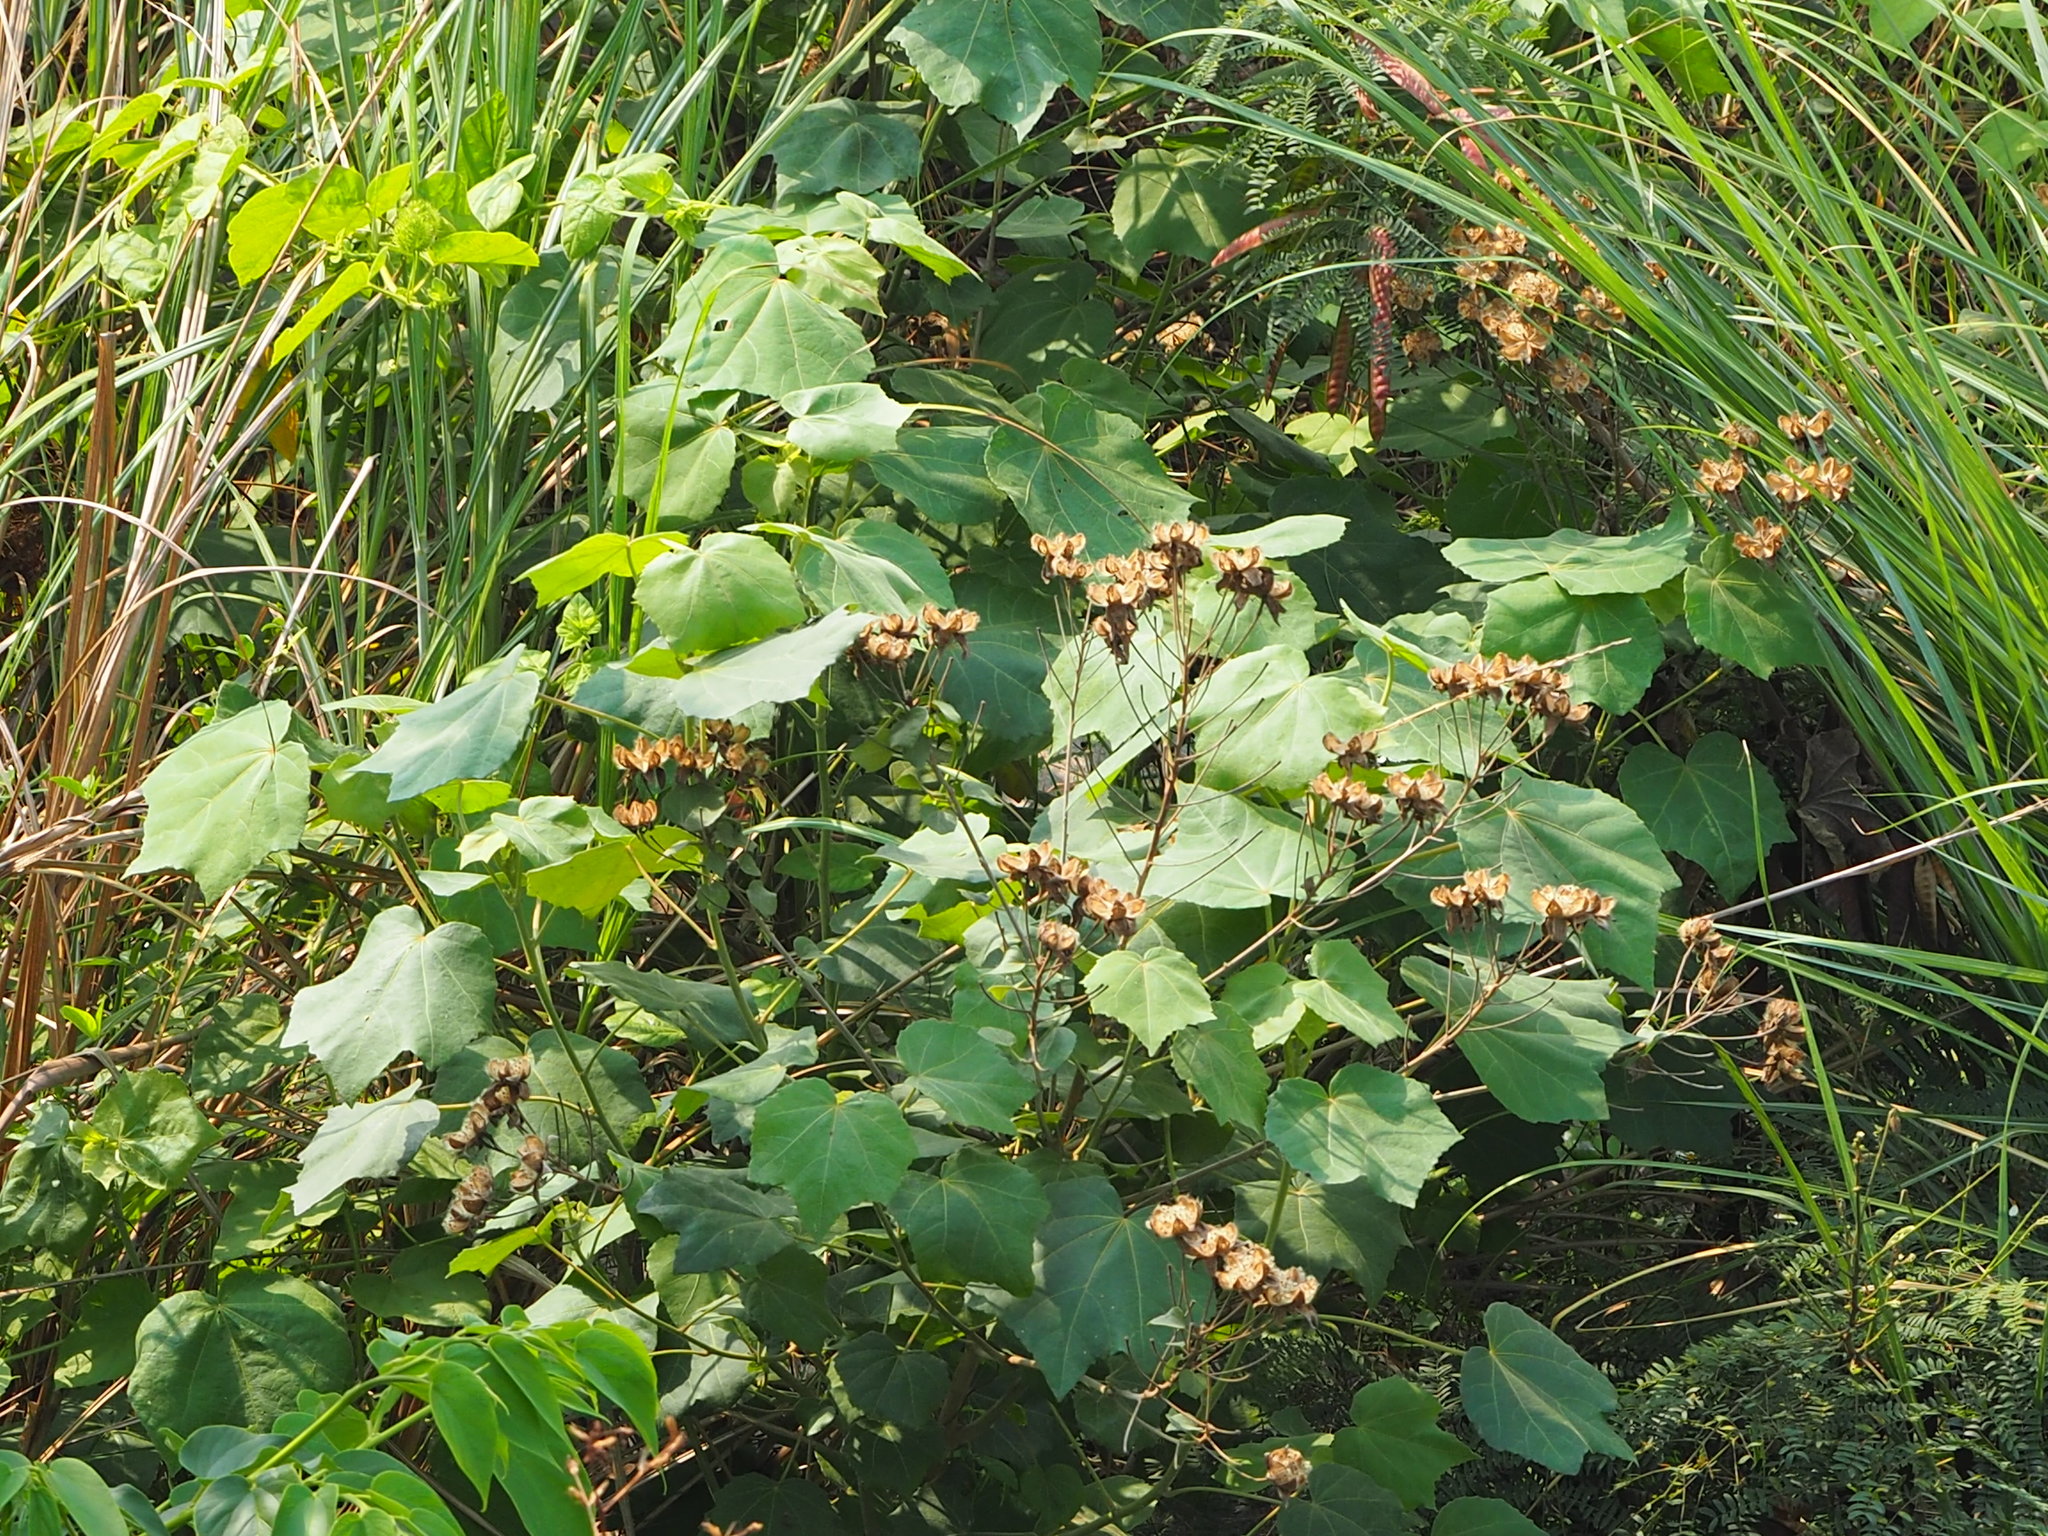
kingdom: Plantae
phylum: Tracheophyta
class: Magnoliopsida
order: Malvales
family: Malvaceae
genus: Hibiscus
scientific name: Hibiscus taiwanensis
